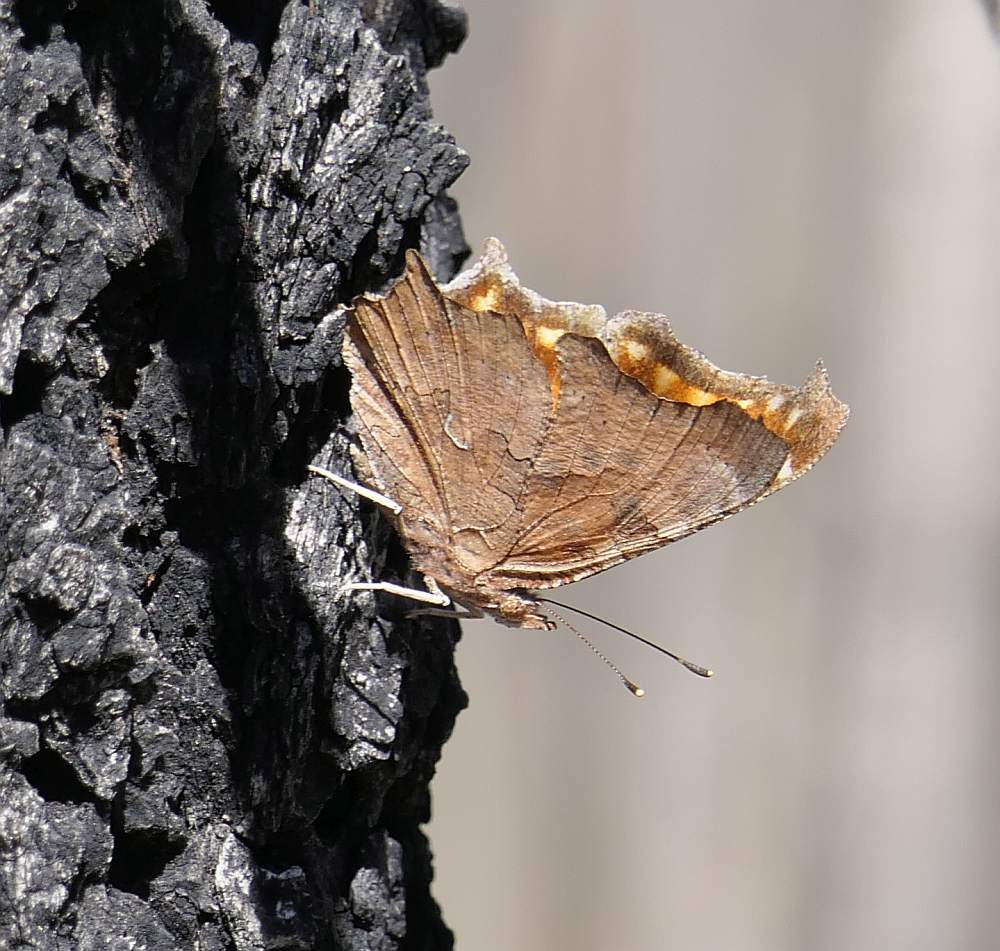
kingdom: Animalia
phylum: Arthropoda
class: Insecta
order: Lepidoptera
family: Nymphalidae
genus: Polygonia
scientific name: Polygonia comma
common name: Eastern comma
